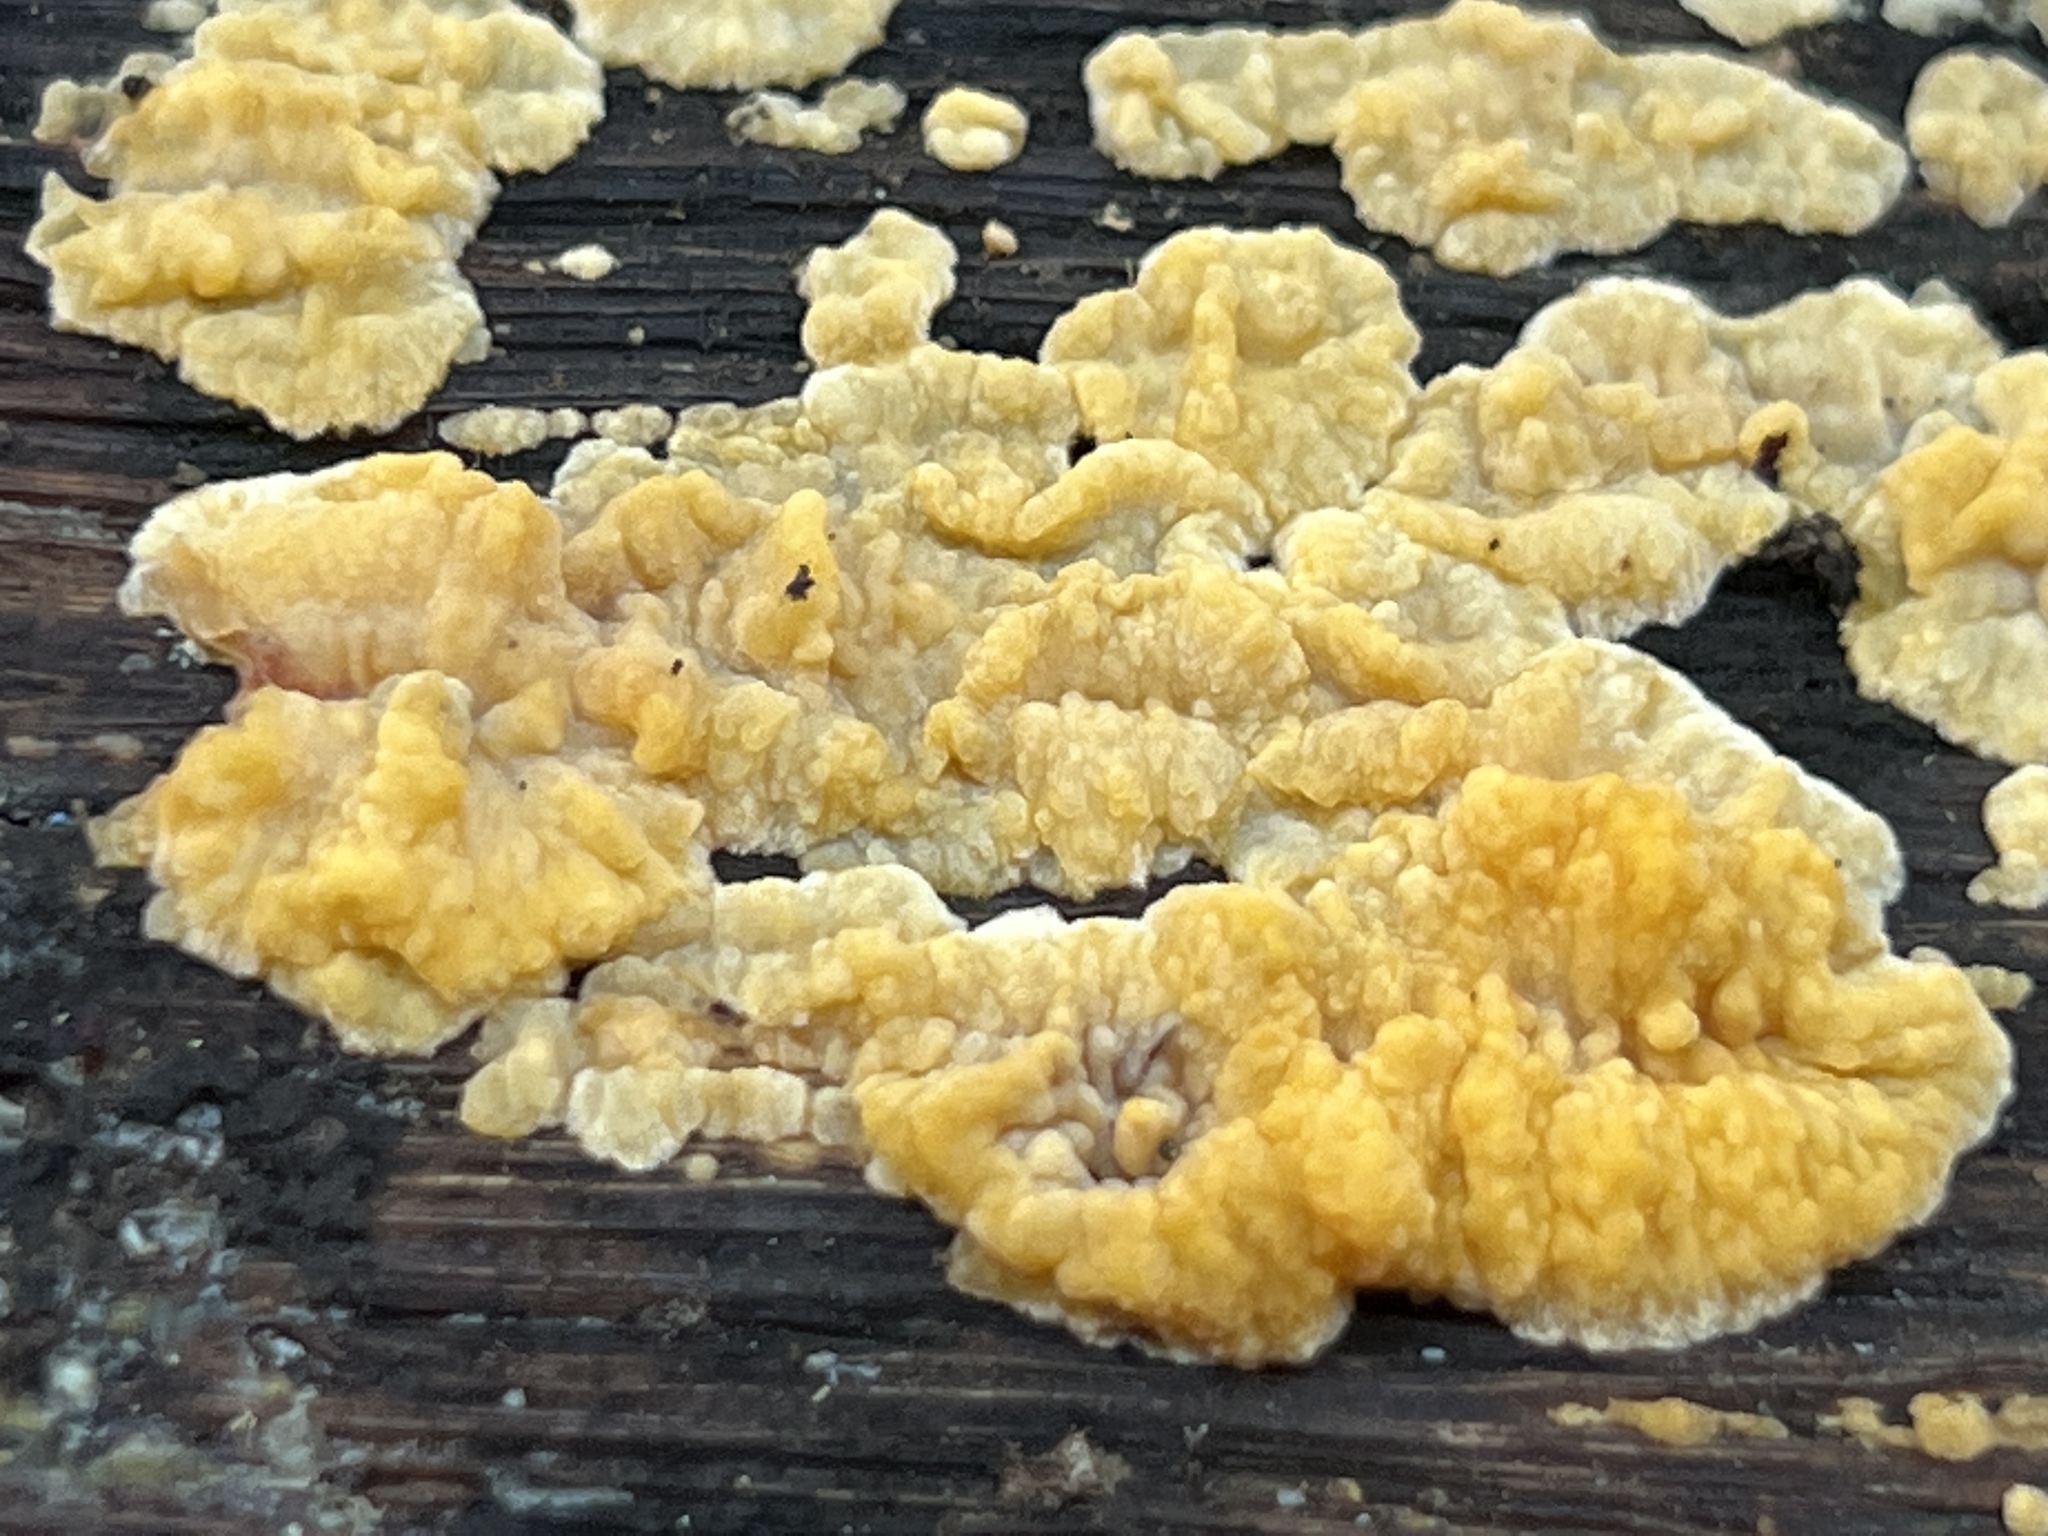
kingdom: Fungi
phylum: Basidiomycota
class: Agaricomycetes
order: Polyporales
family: Meruliaceae
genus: Phlebia
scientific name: Phlebia radiata
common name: Wrinkled crust
